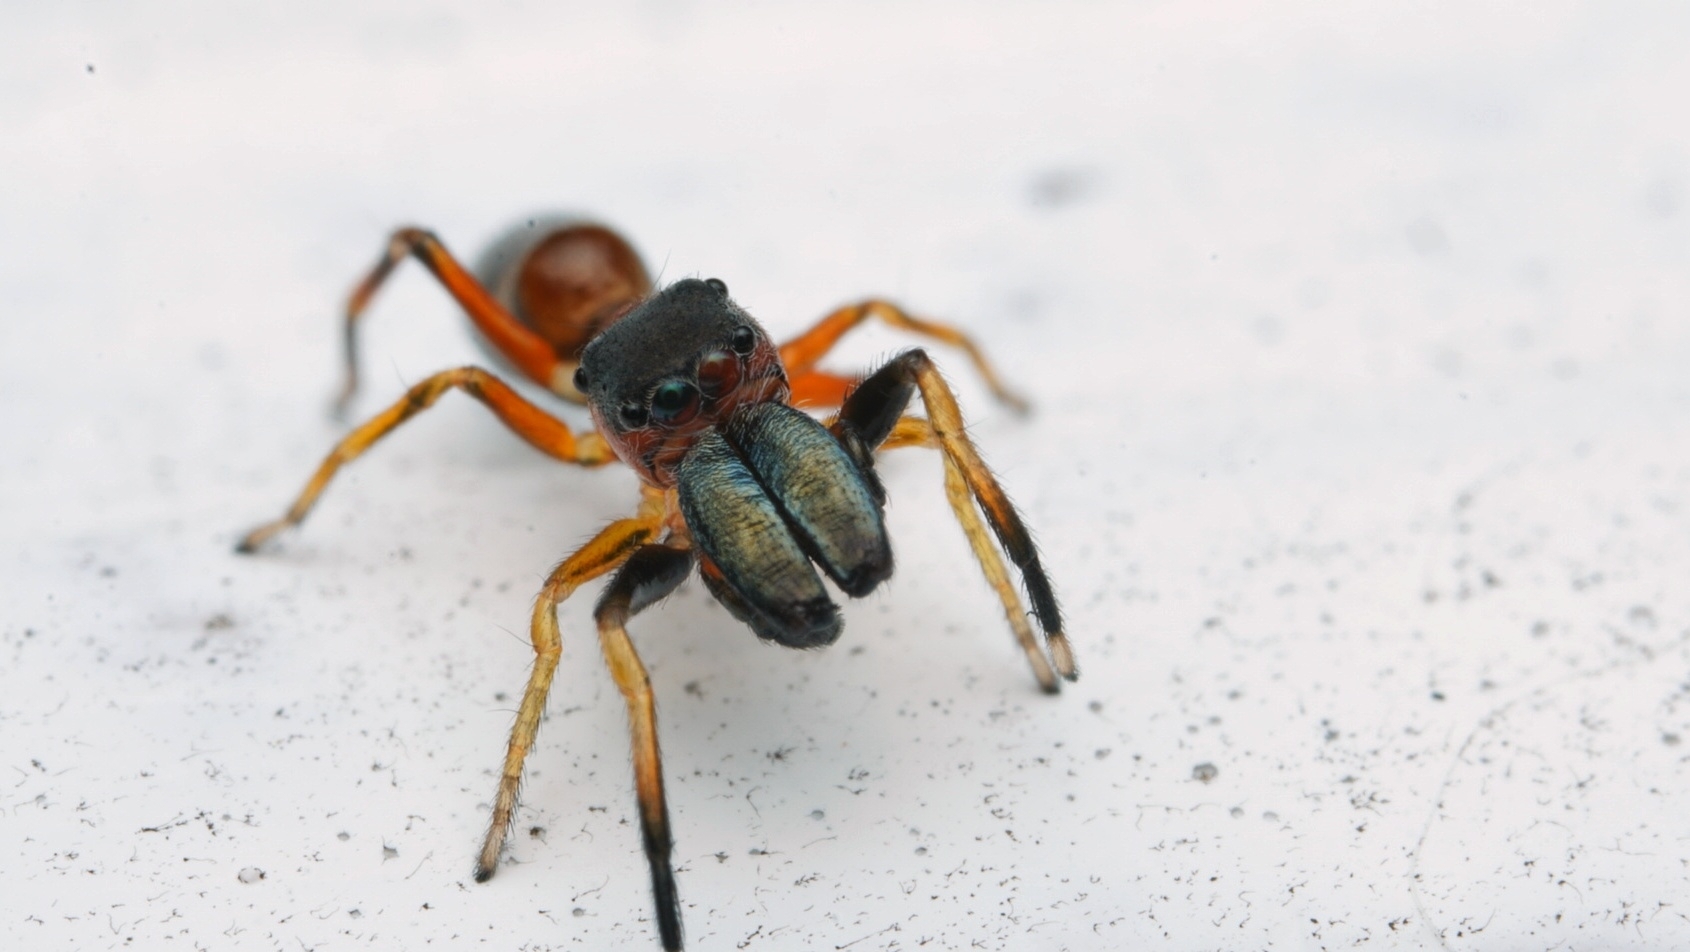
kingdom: Animalia
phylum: Arthropoda
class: Arachnida
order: Araneae
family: Salticidae
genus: Myrmarachne
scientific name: Myrmarachne formicaria
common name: Ant mimic jumping spider
